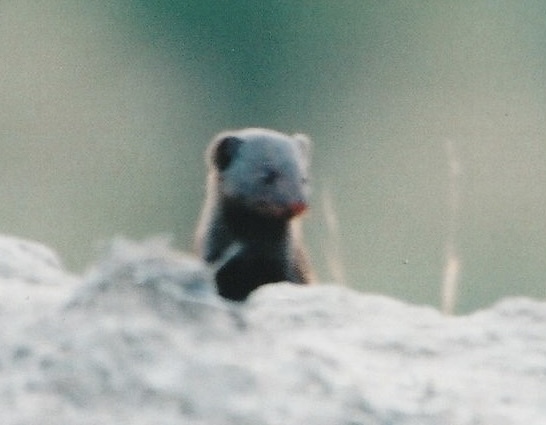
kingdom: Animalia
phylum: Chordata
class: Mammalia
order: Carnivora
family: Herpestidae
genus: Helogale
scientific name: Helogale parvula
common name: Common dwarf mongoose
